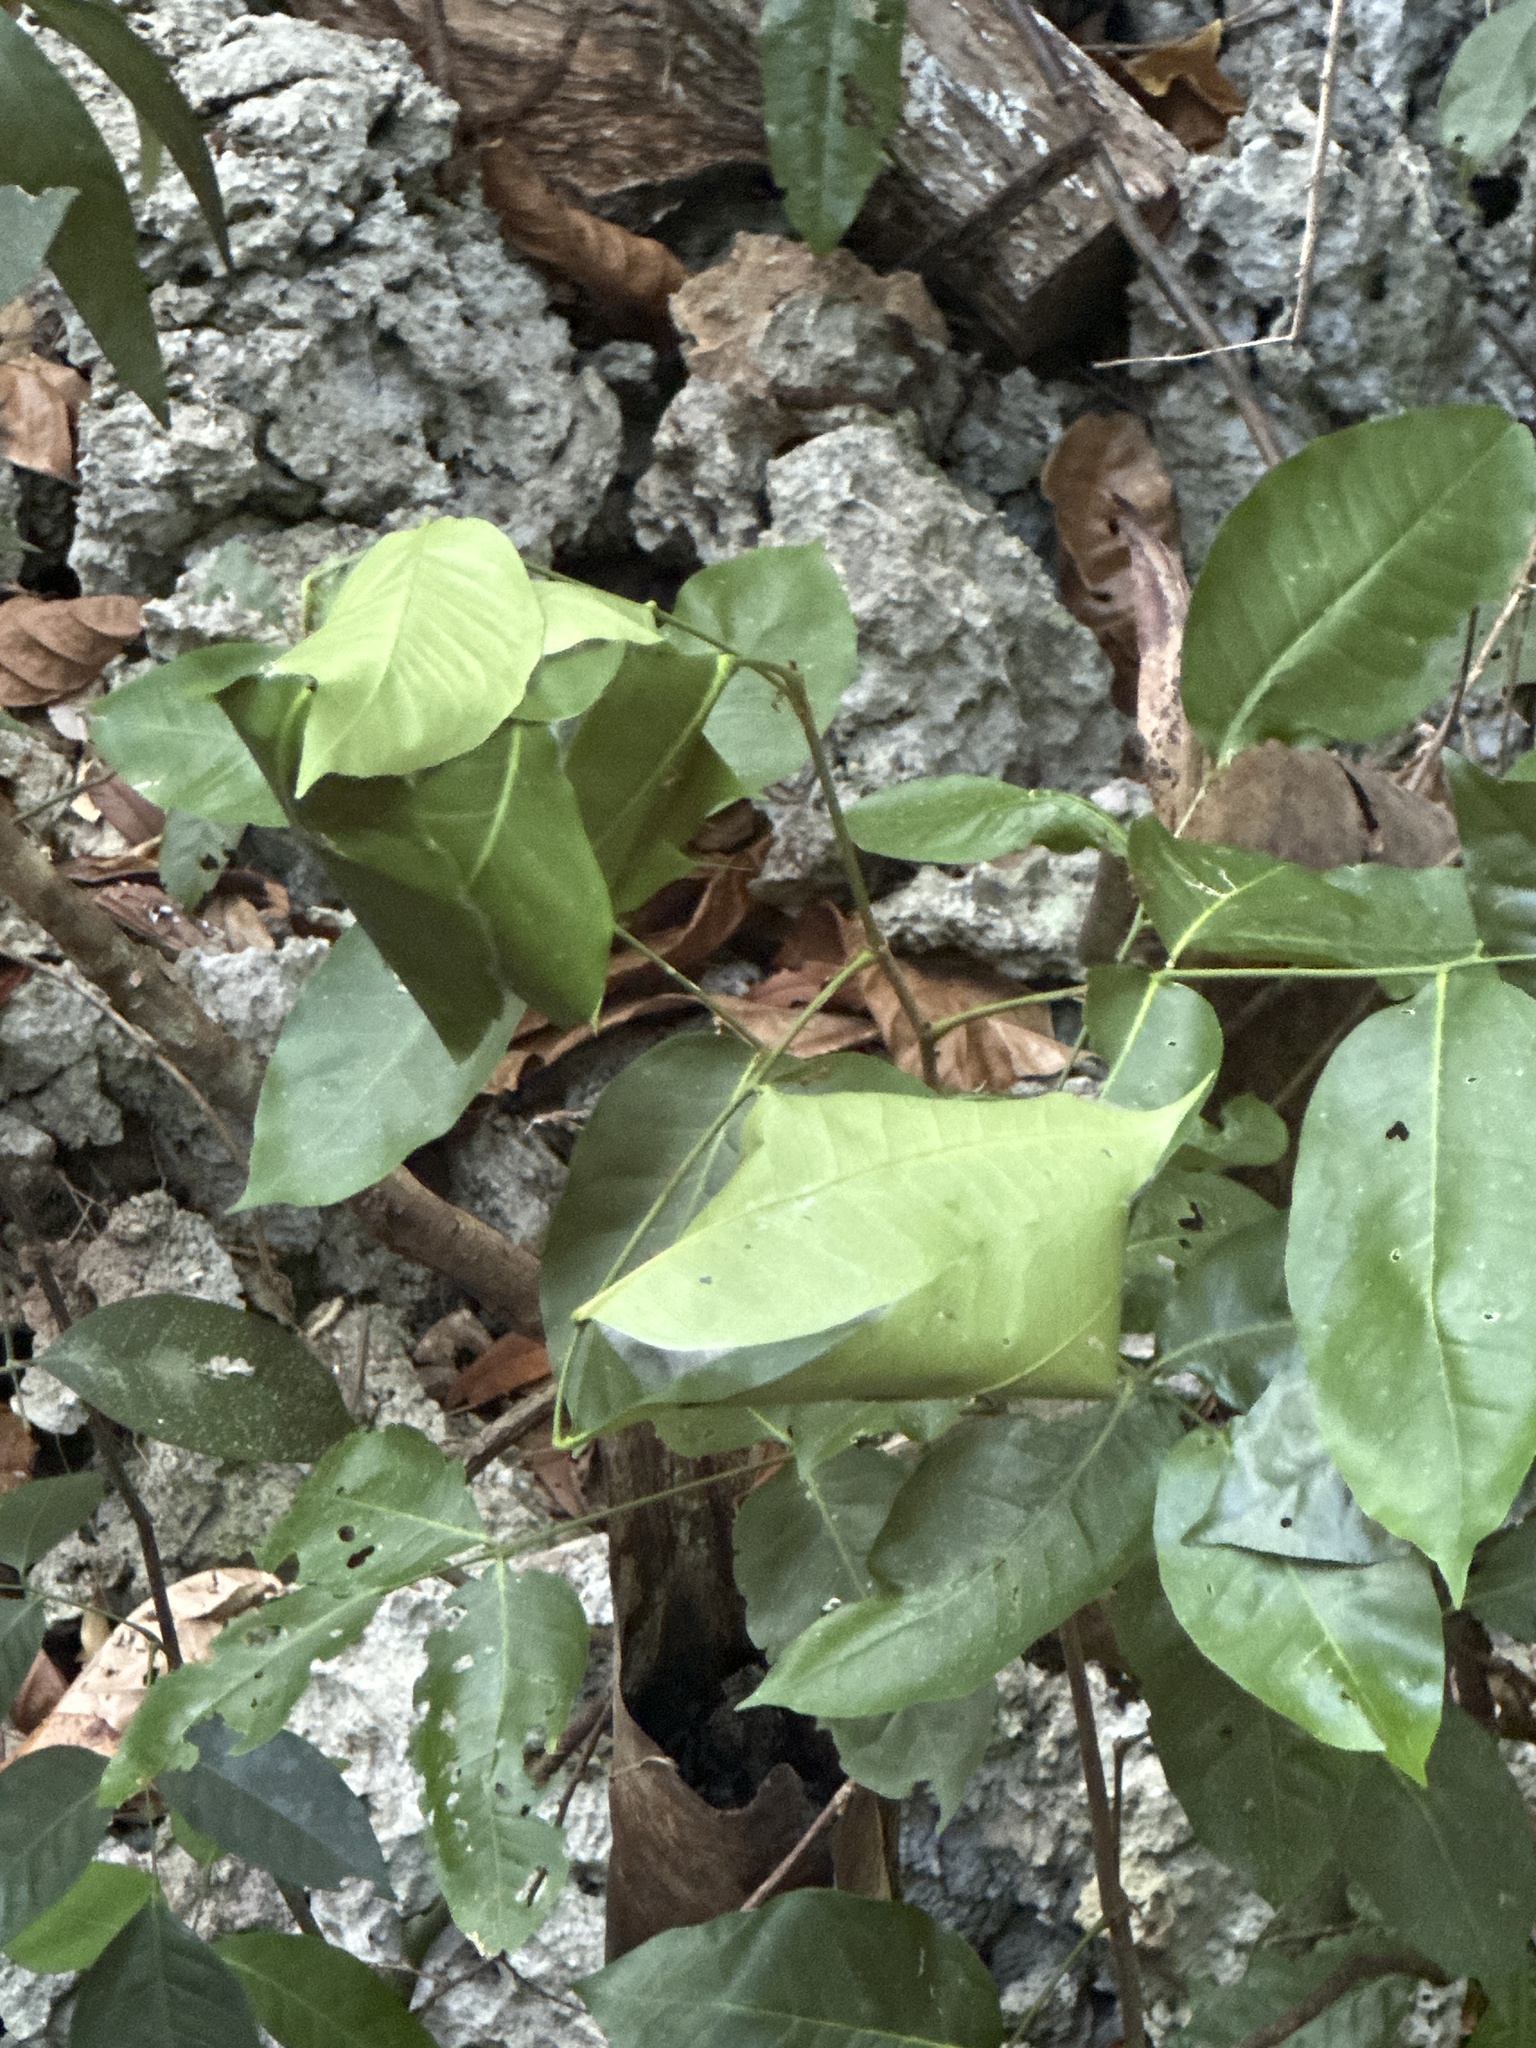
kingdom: Animalia
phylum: Arthropoda
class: Insecta
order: Hymenoptera
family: Formicidae
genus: Oecophylla
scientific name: Oecophylla smaragdina
